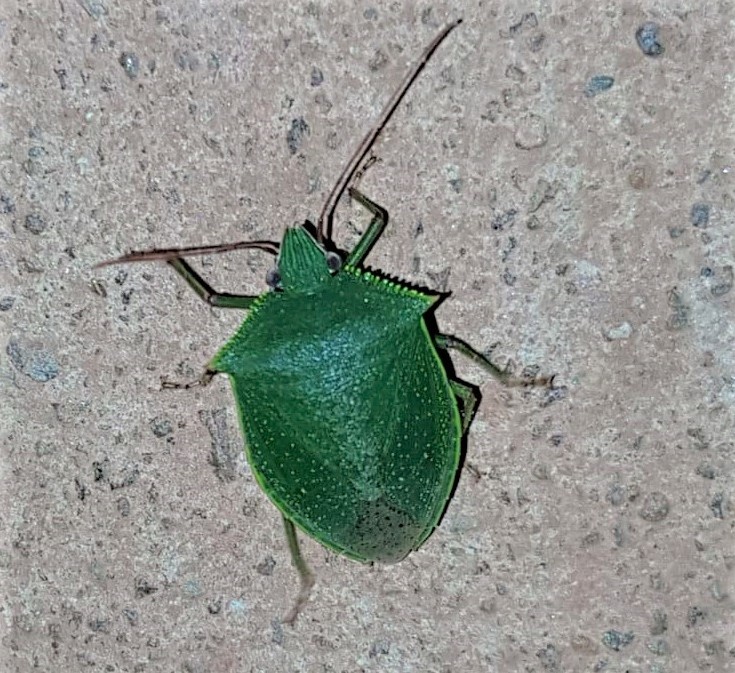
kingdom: Animalia
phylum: Arthropoda
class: Insecta
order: Hemiptera
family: Pentatomidae
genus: Loxa
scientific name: Loxa virescens
